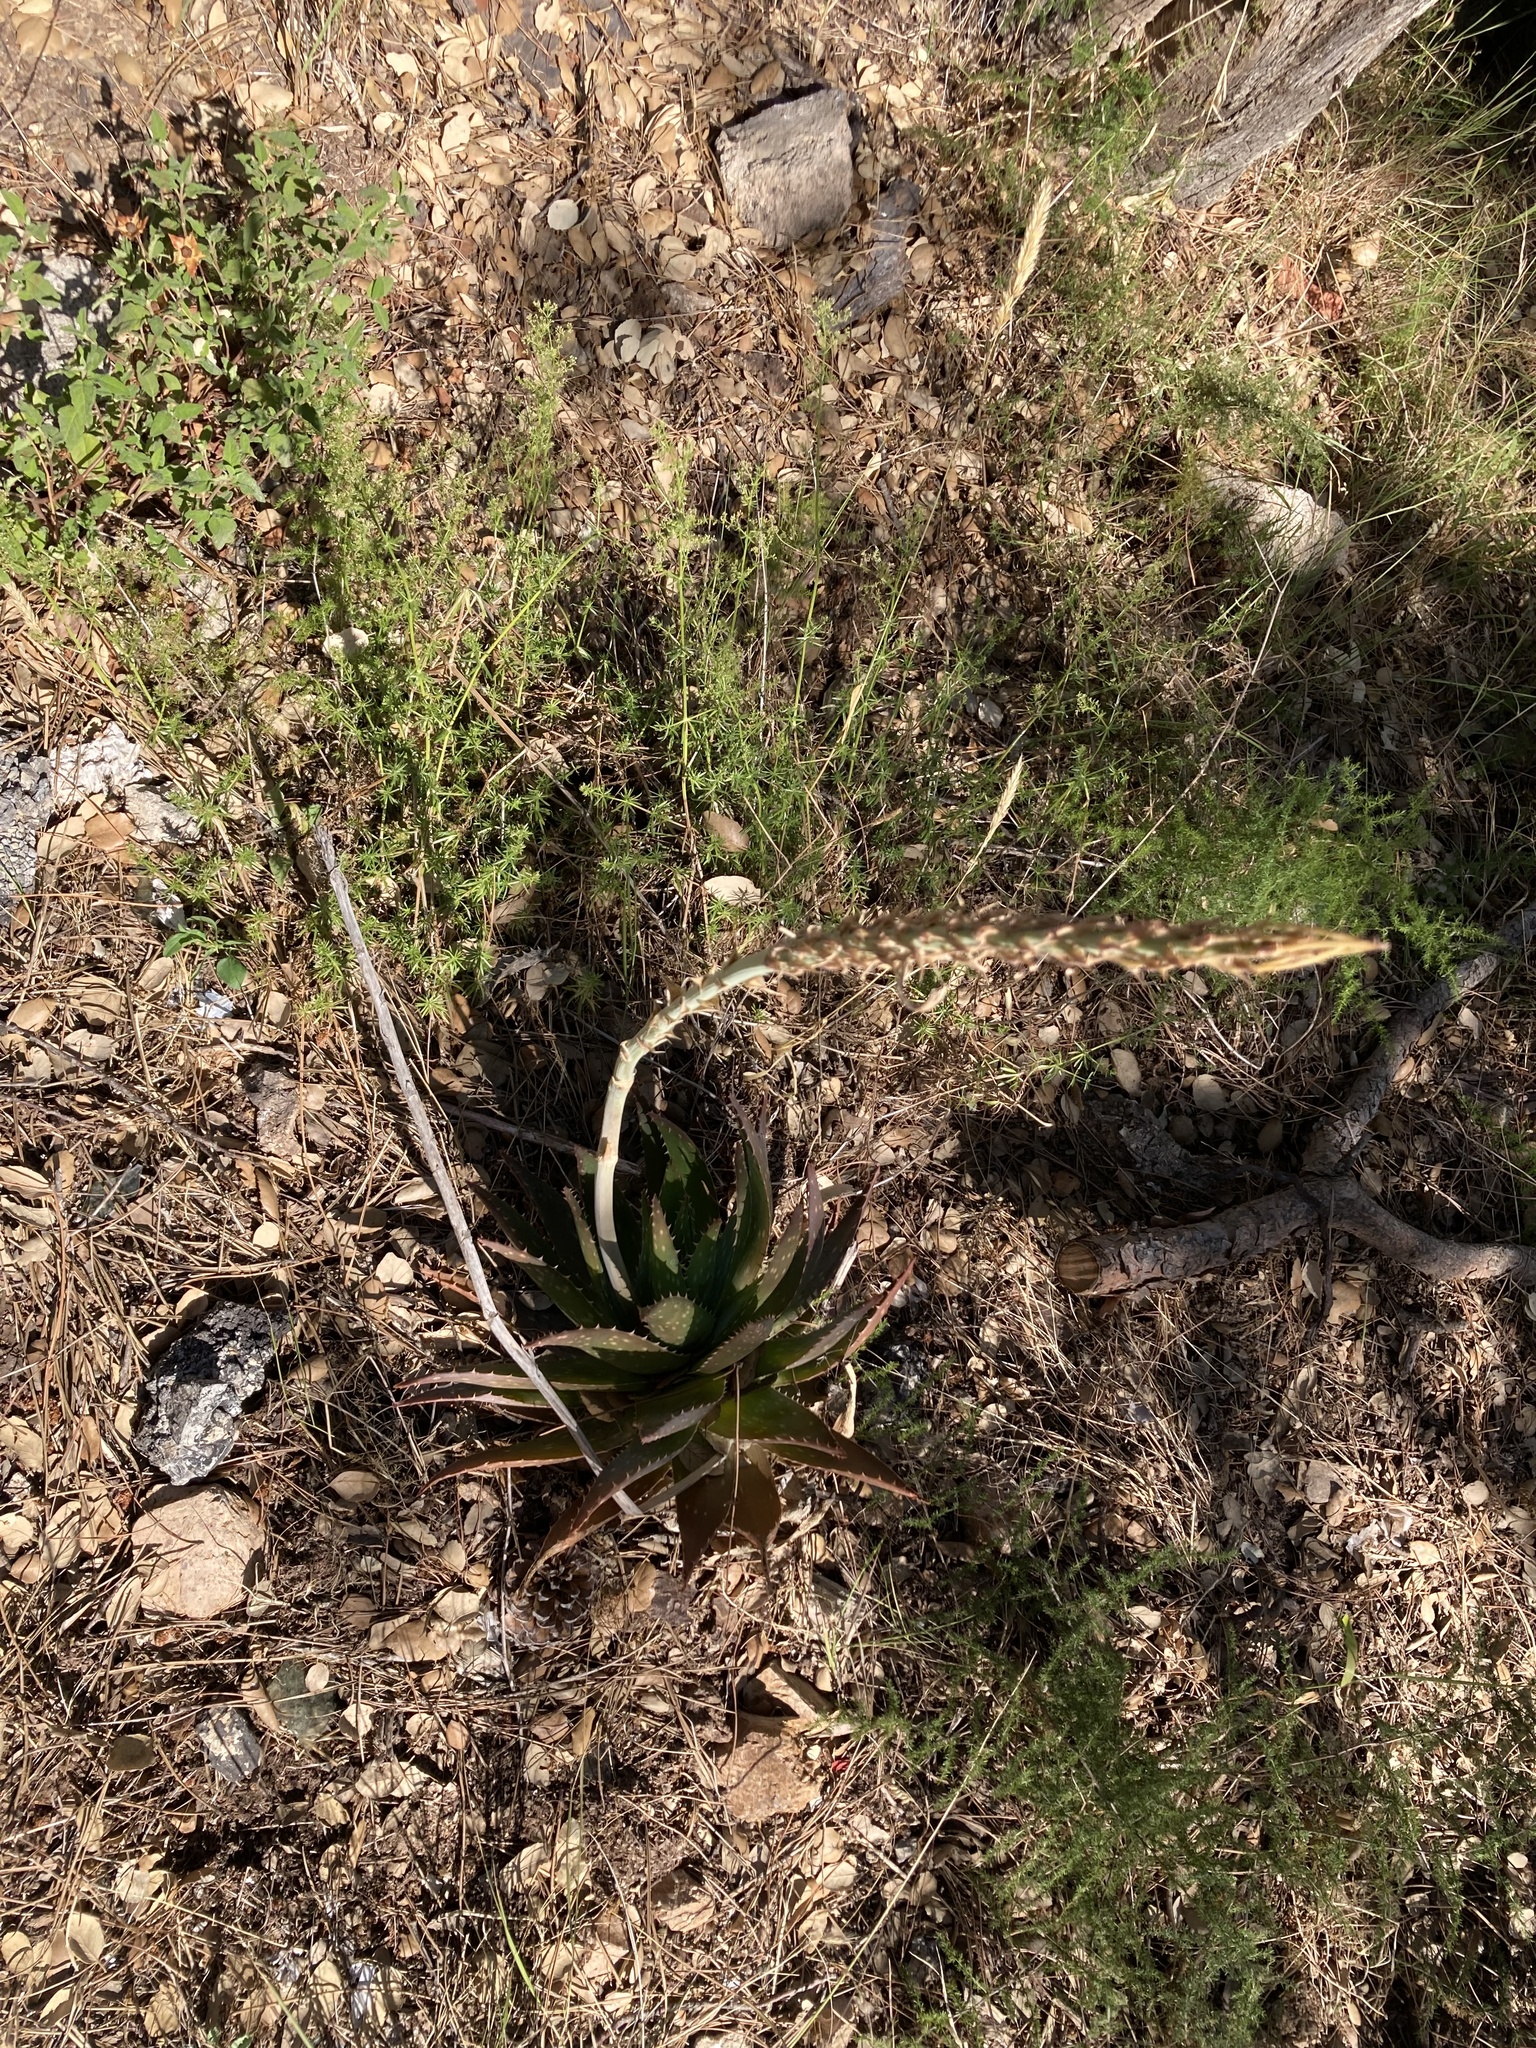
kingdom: Plantae
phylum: Tracheophyta
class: Liliopsida
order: Asparagales
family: Asphodelaceae
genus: Aloe
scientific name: Aloe maculata
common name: Broadleaf aloe
